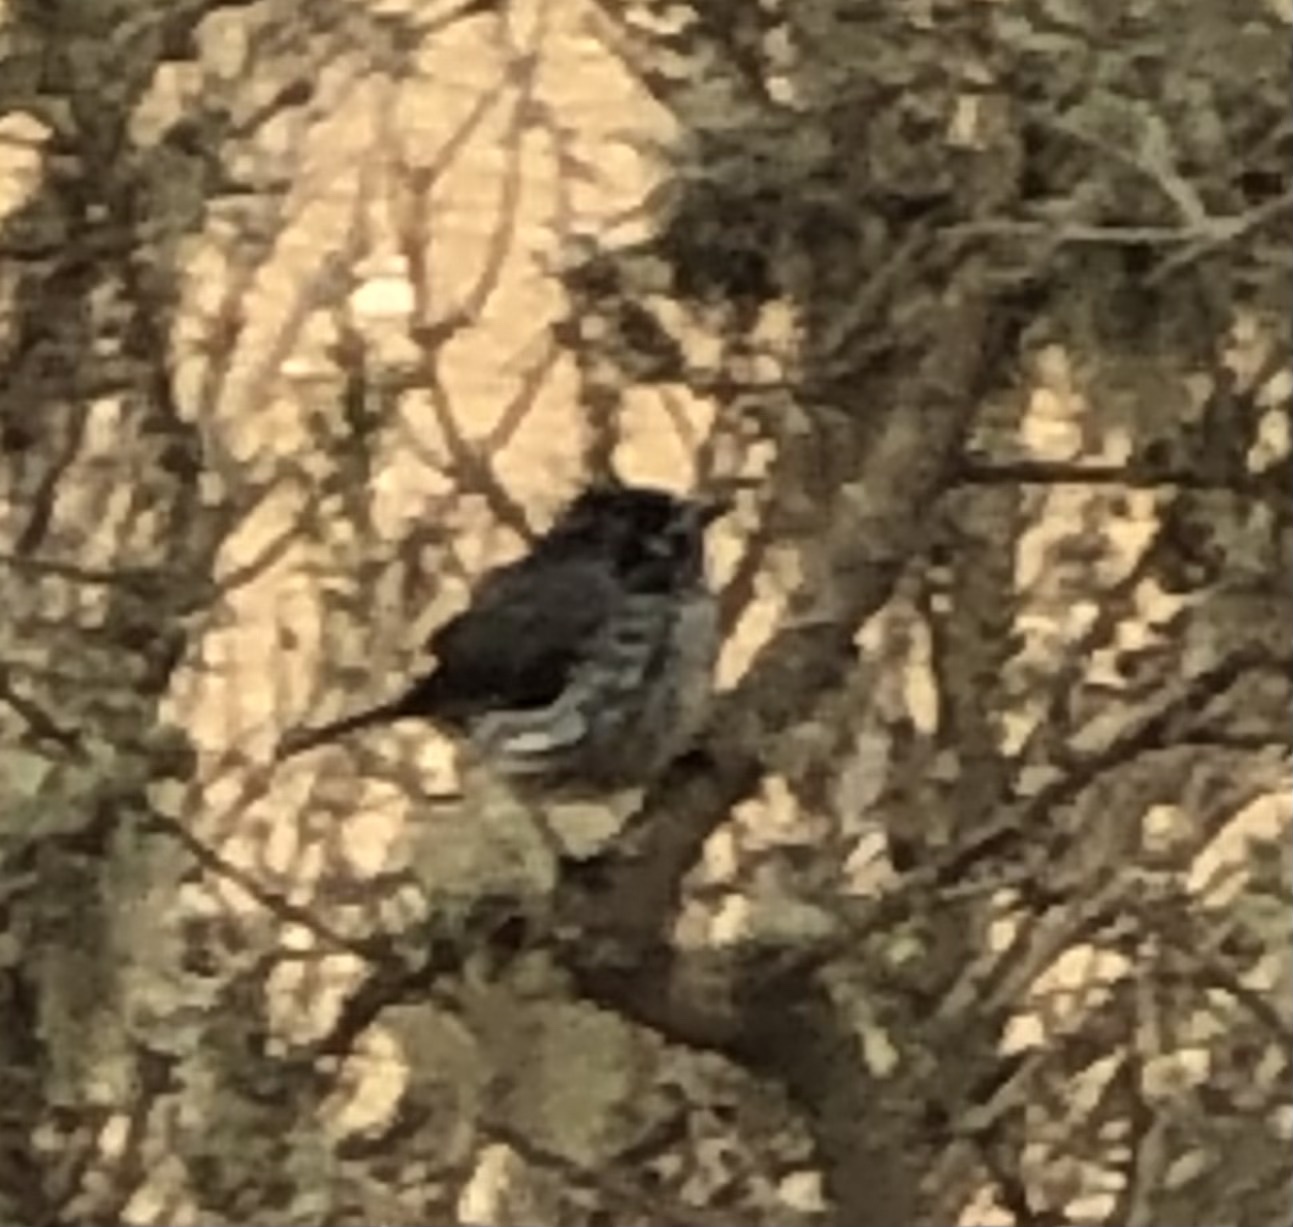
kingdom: Animalia
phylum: Chordata
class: Aves
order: Passeriformes
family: Tyrannidae
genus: Anairetes
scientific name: Anairetes parulus
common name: Tufted tit-tyrant
